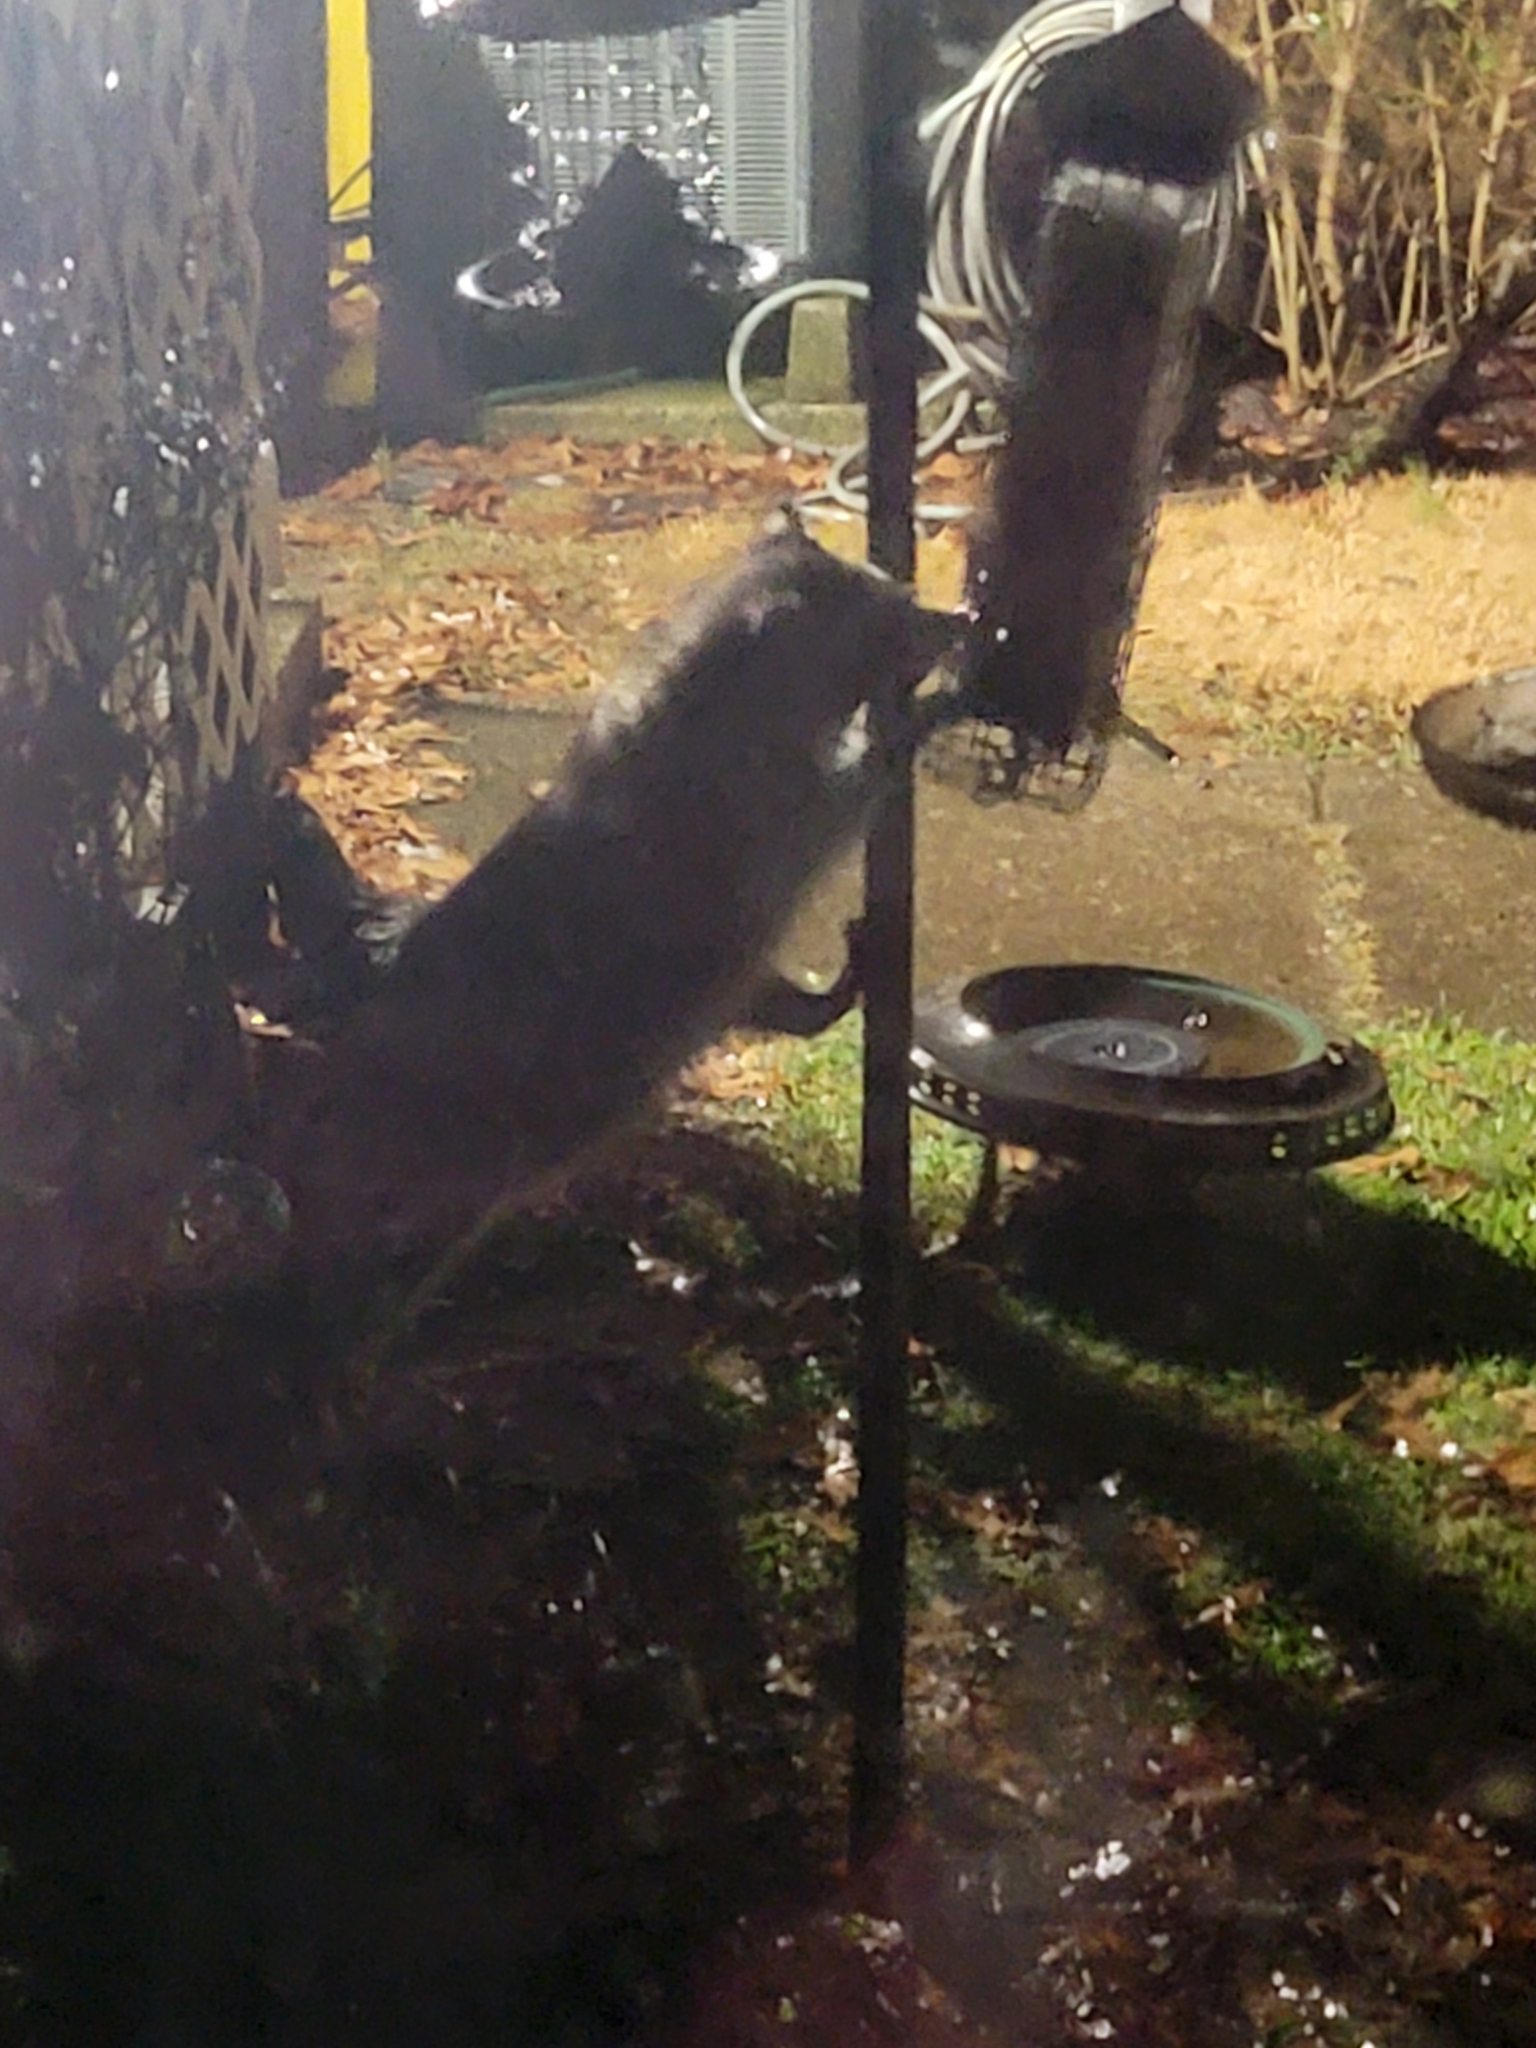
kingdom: Animalia
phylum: Chordata
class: Mammalia
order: Carnivora
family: Procyonidae
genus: Procyon
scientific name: Procyon lotor
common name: Raccoon
